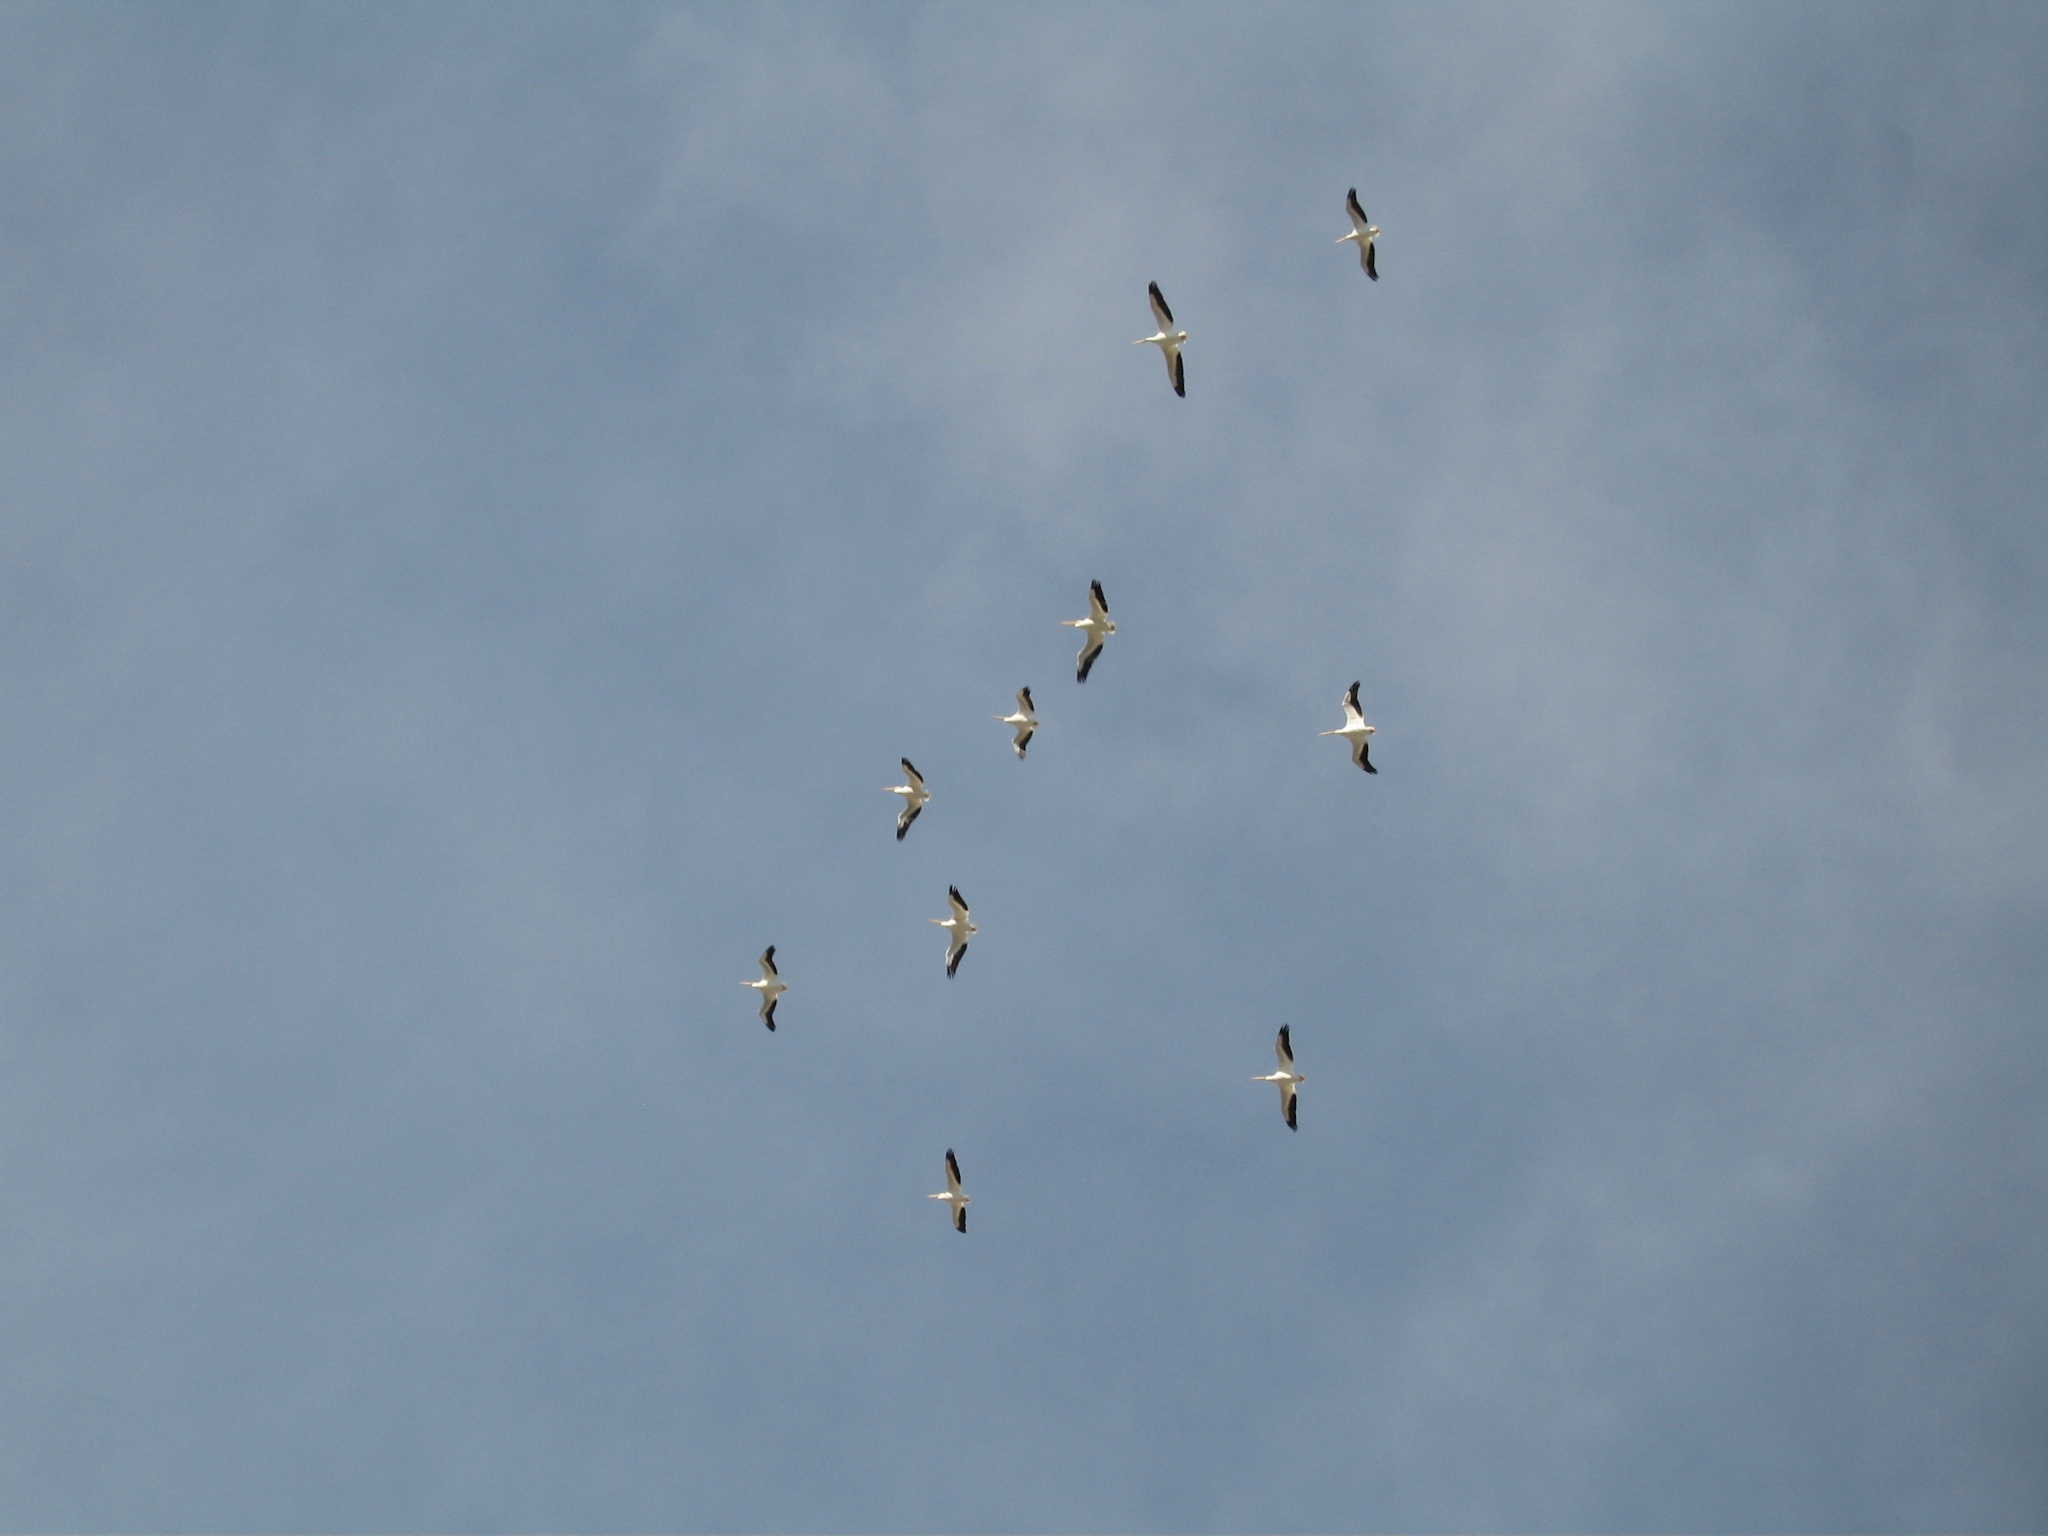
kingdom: Animalia
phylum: Chordata
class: Aves
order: Pelecaniformes
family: Pelecanidae
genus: Pelecanus
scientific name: Pelecanus erythrorhynchos
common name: American white pelican
